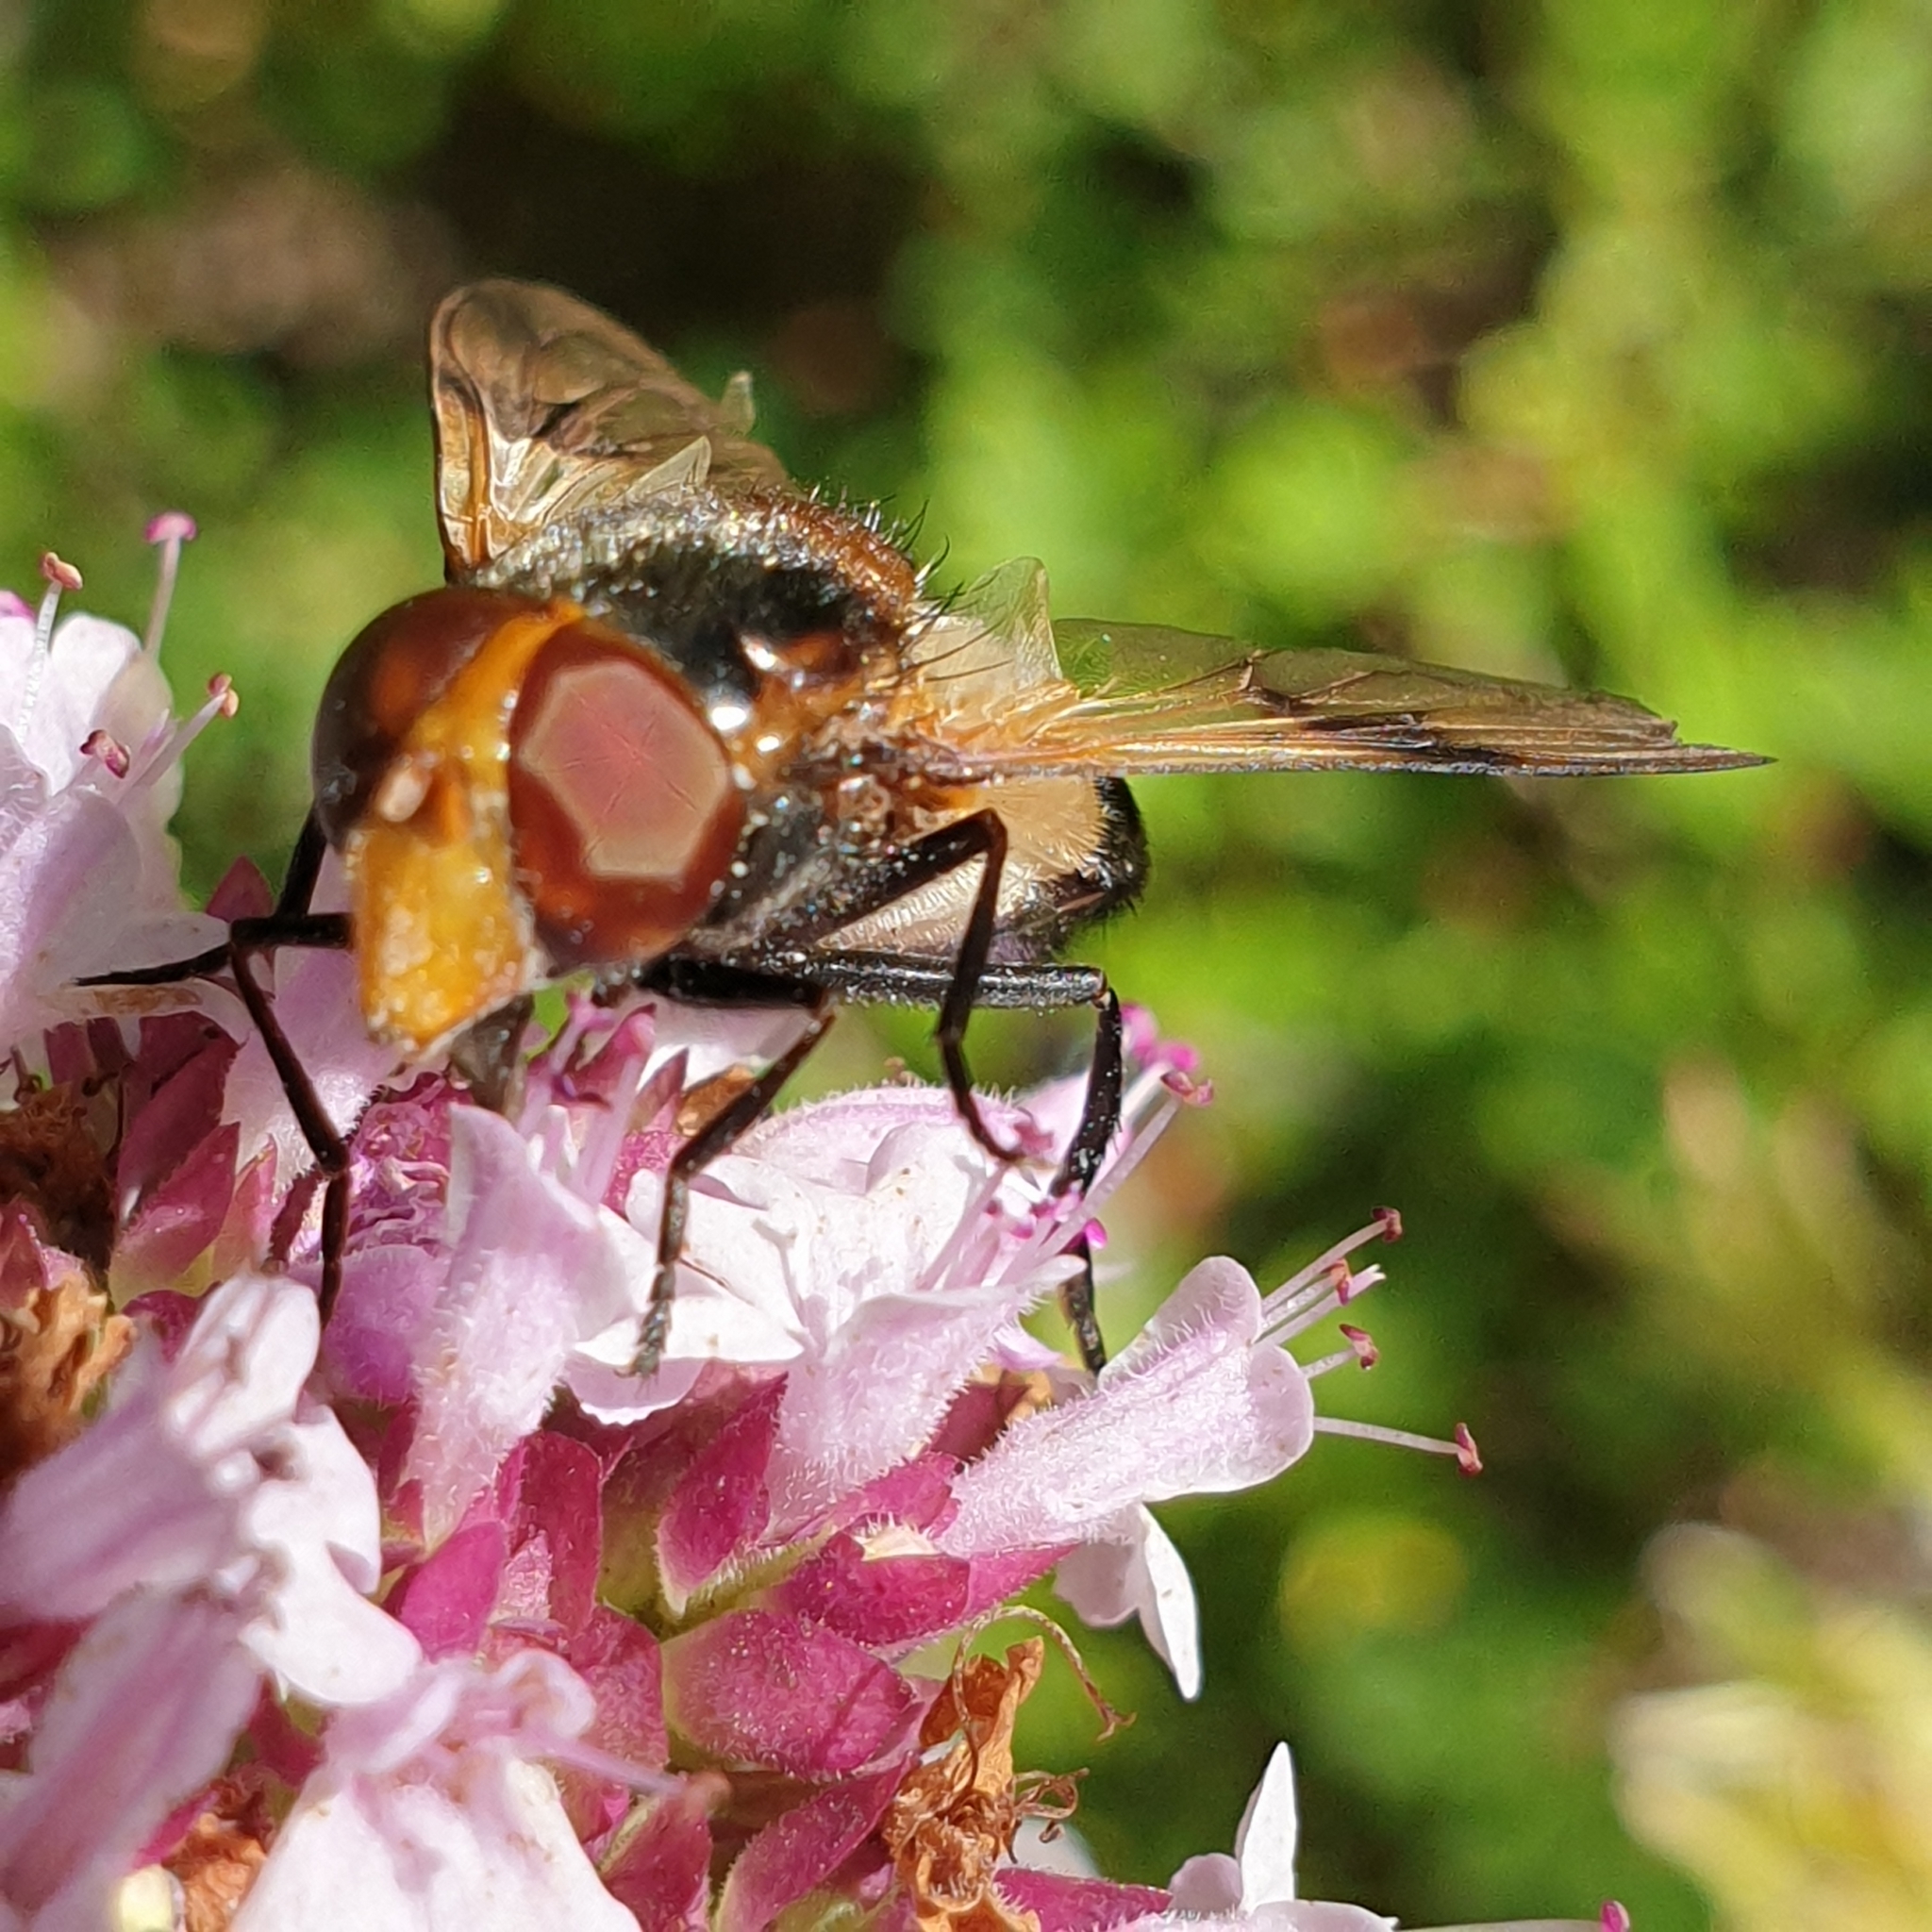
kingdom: Animalia
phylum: Arthropoda
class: Insecta
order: Diptera
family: Syrphidae
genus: Volucella
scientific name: Volucella pellucens
